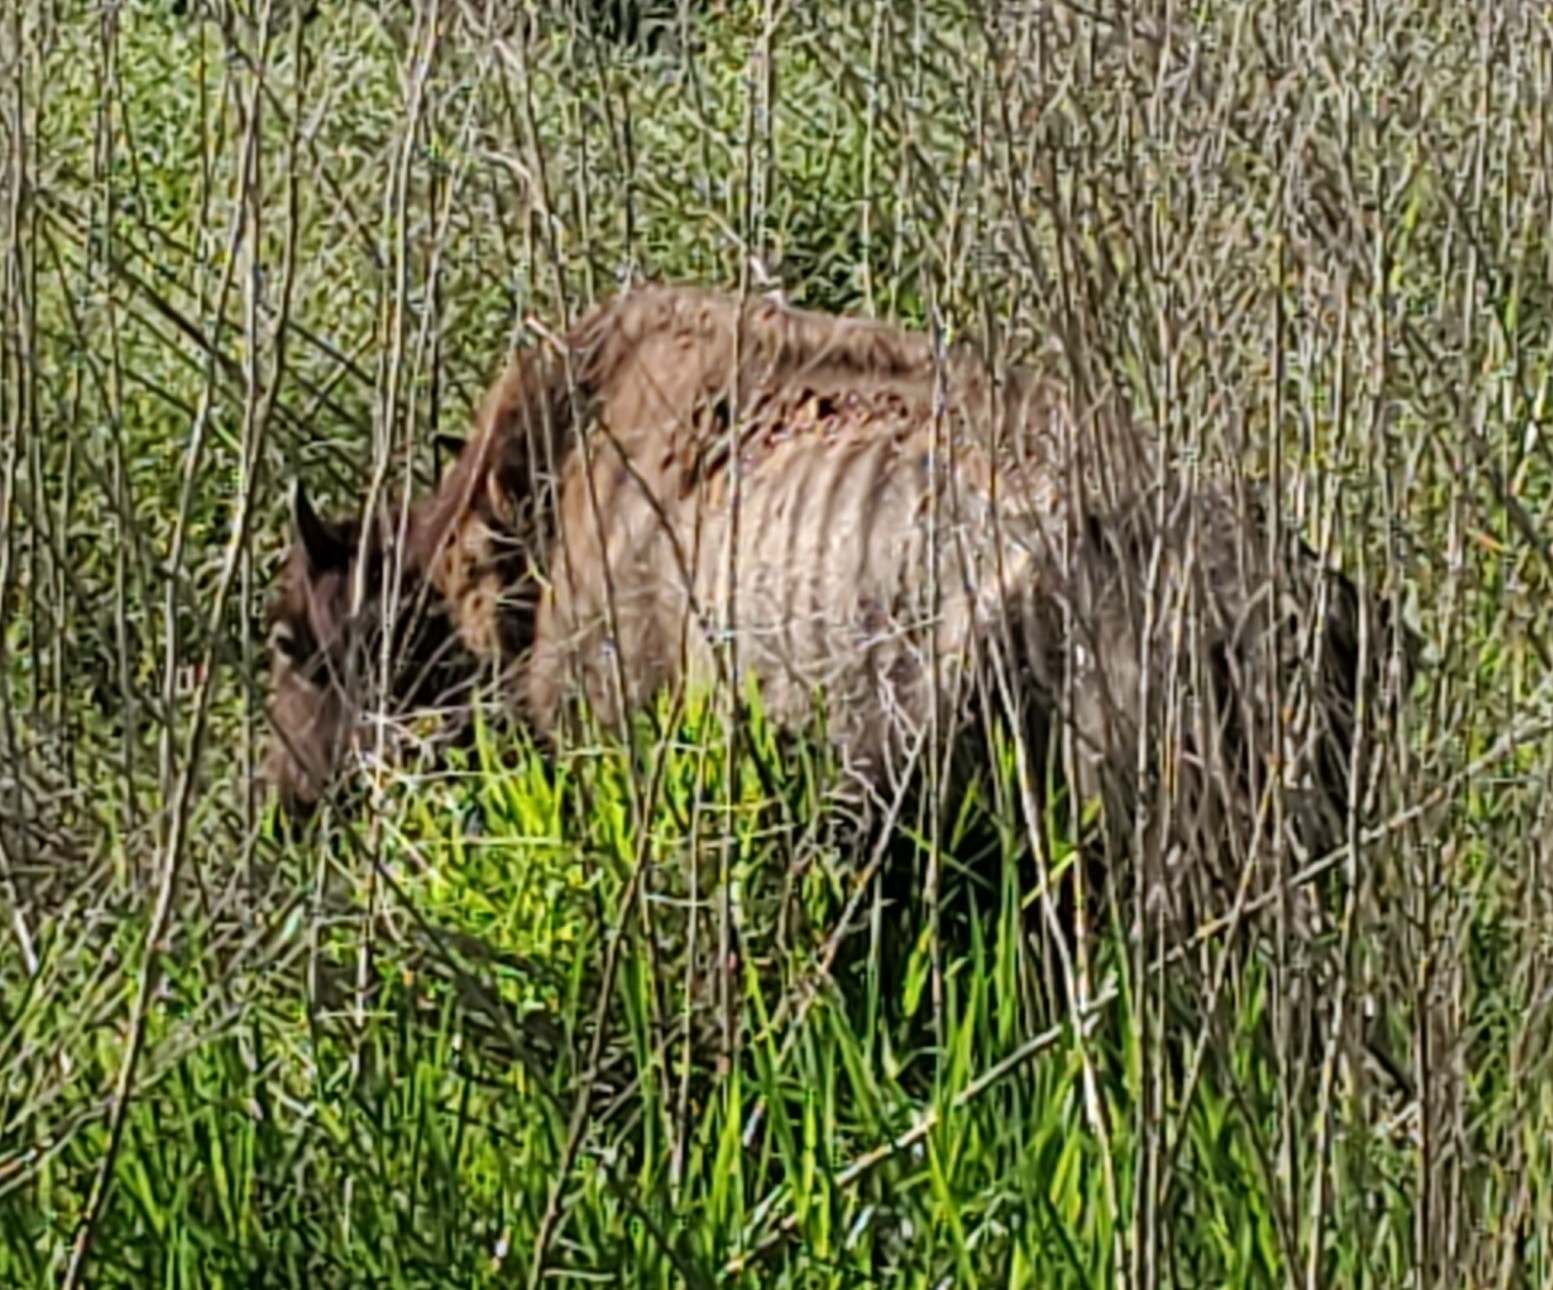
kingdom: Animalia
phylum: Chordata
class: Mammalia
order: Artiodactyla
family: Bovidae
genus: Bison
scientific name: Bison bison
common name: American bison
